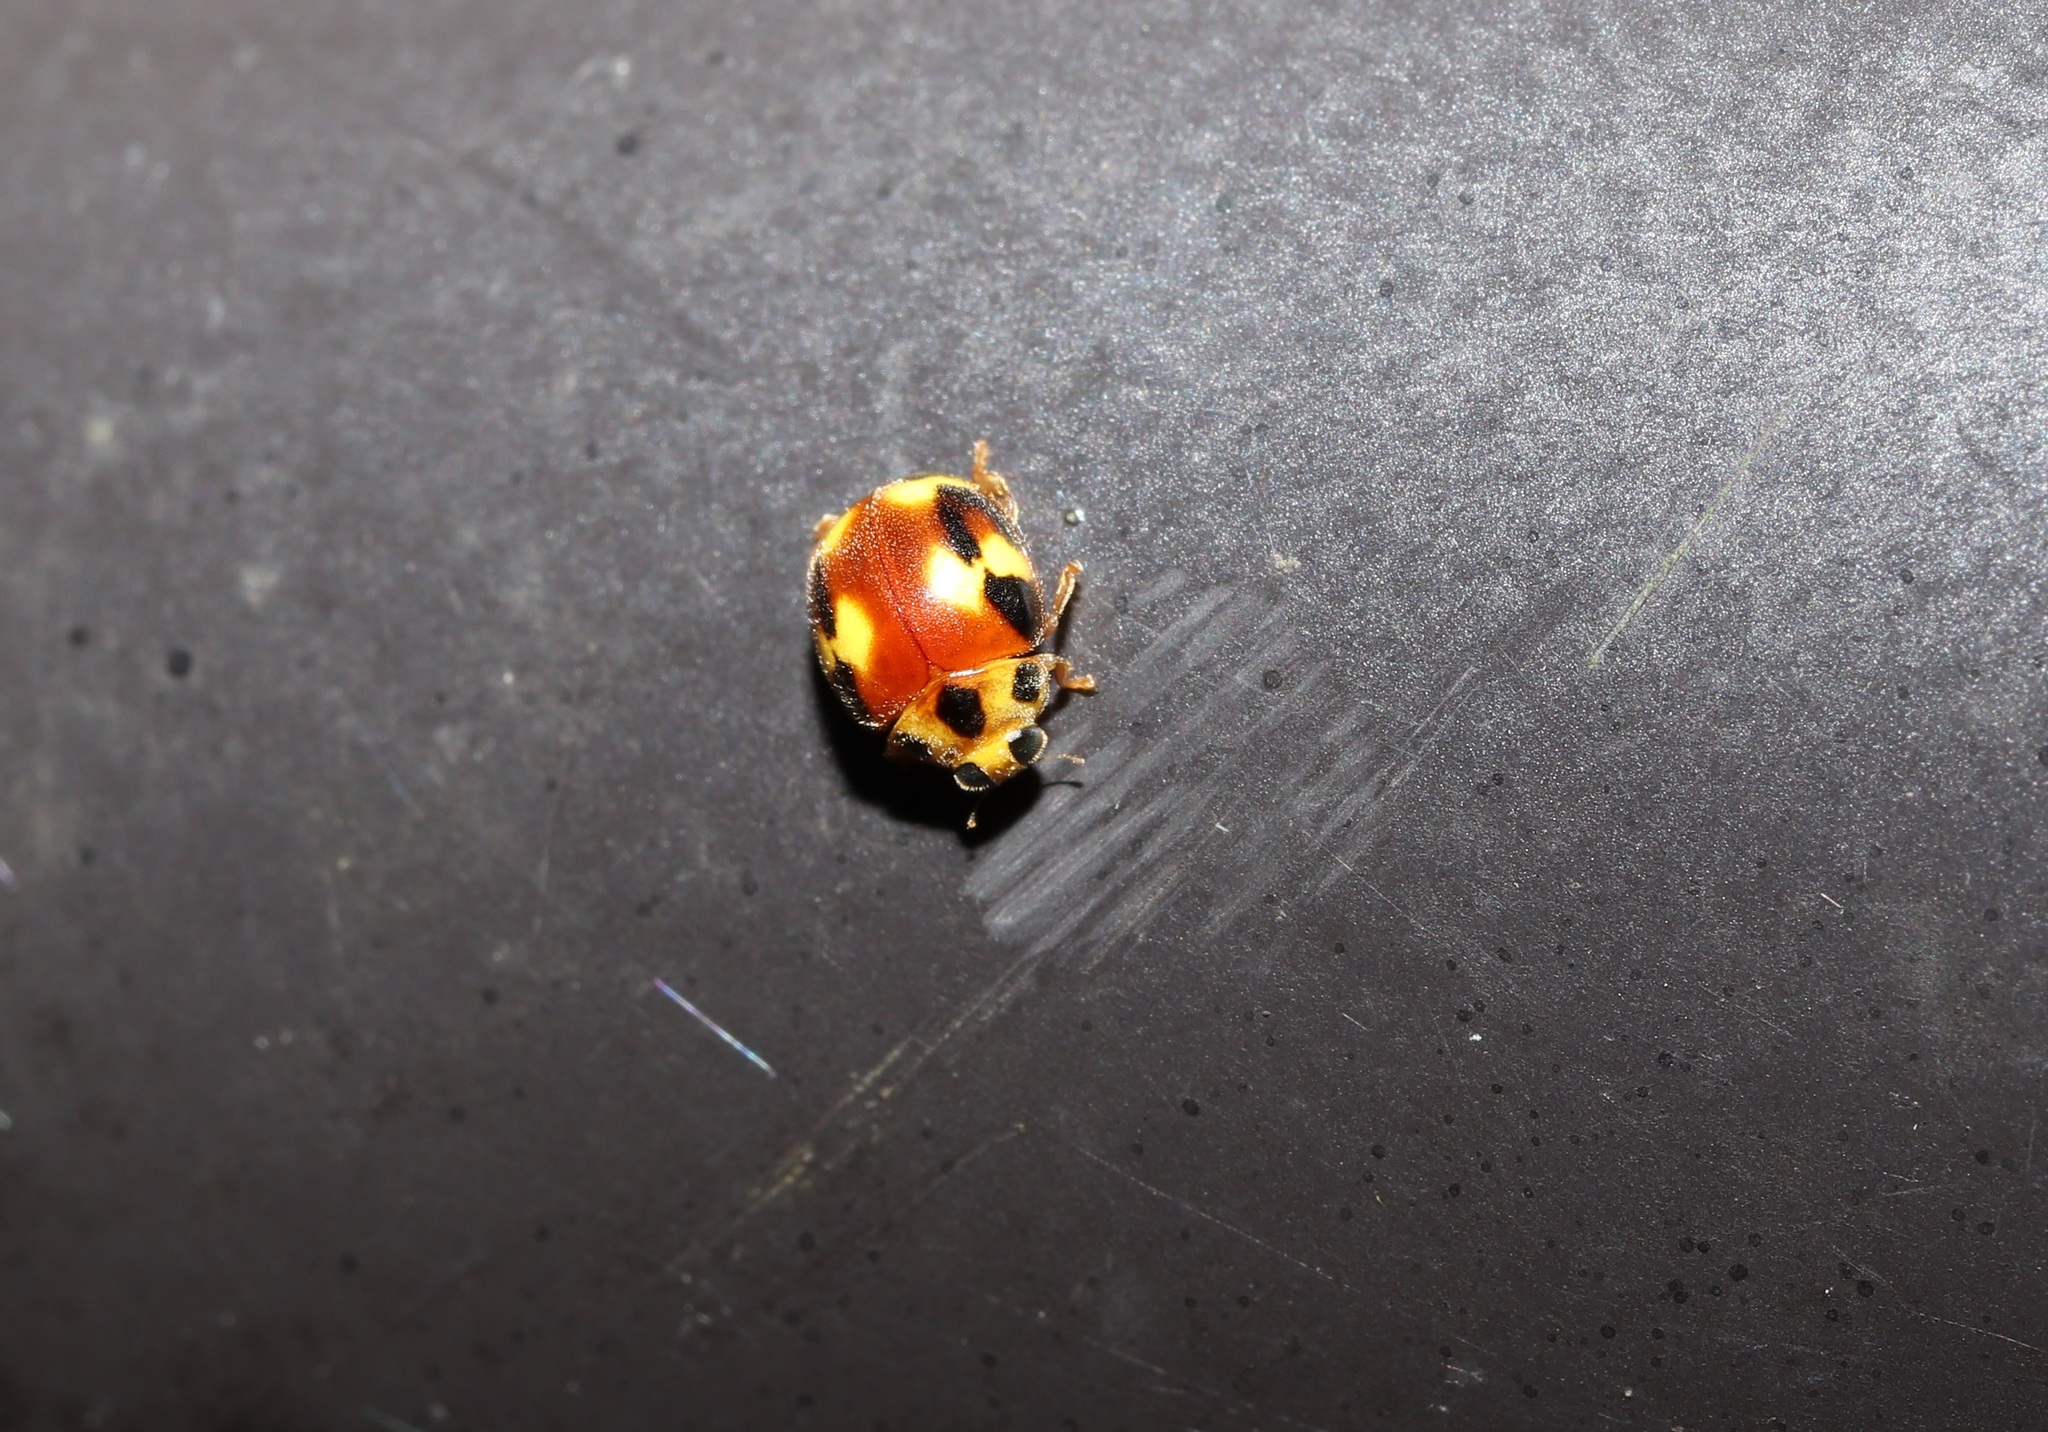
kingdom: Animalia
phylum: Arthropoda
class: Insecta
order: Coleoptera
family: Coccinellidae
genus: Amida
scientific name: Amida tricolor
